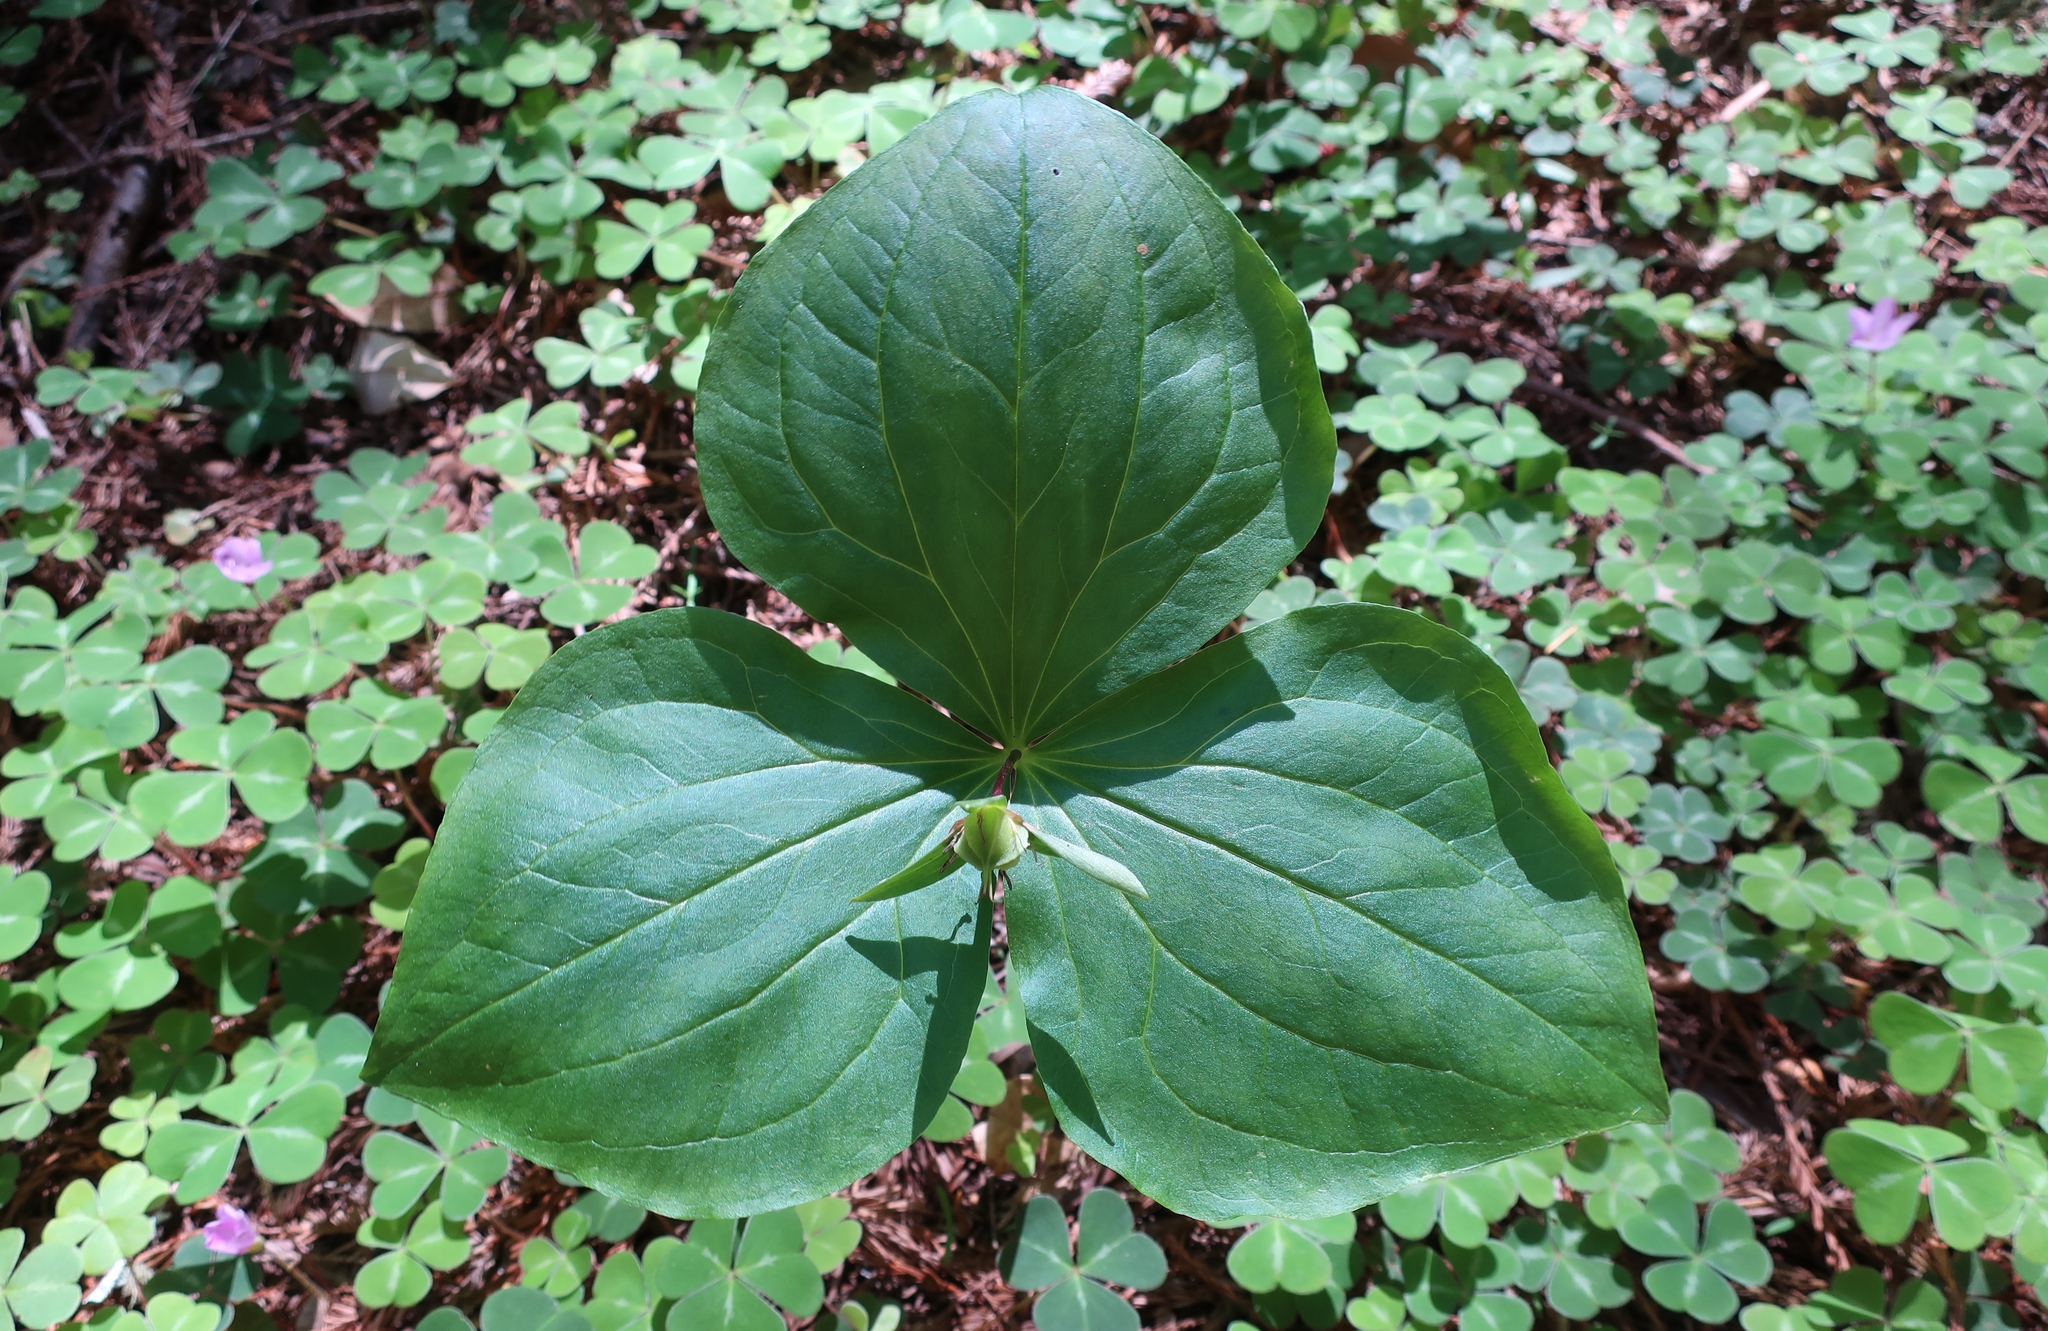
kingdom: Plantae
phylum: Tracheophyta
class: Liliopsida
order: Liliales
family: Melanthiaceae
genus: Trillium
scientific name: Trillium ovatum
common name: Pacific trillium
